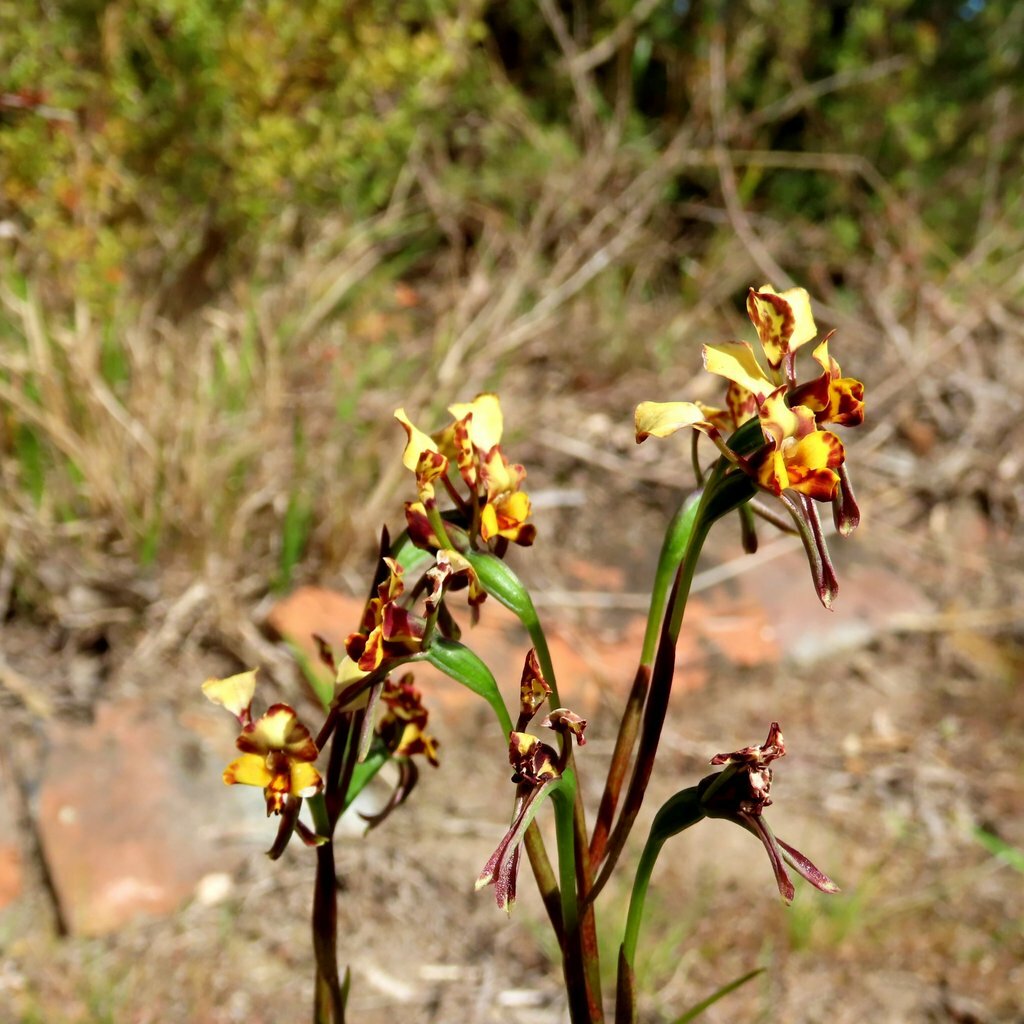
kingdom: Plantae
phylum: Tracheophyta
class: Liliopsida
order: Asparagales
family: Orchidaceae
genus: Diuris
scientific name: Diuris pardina
